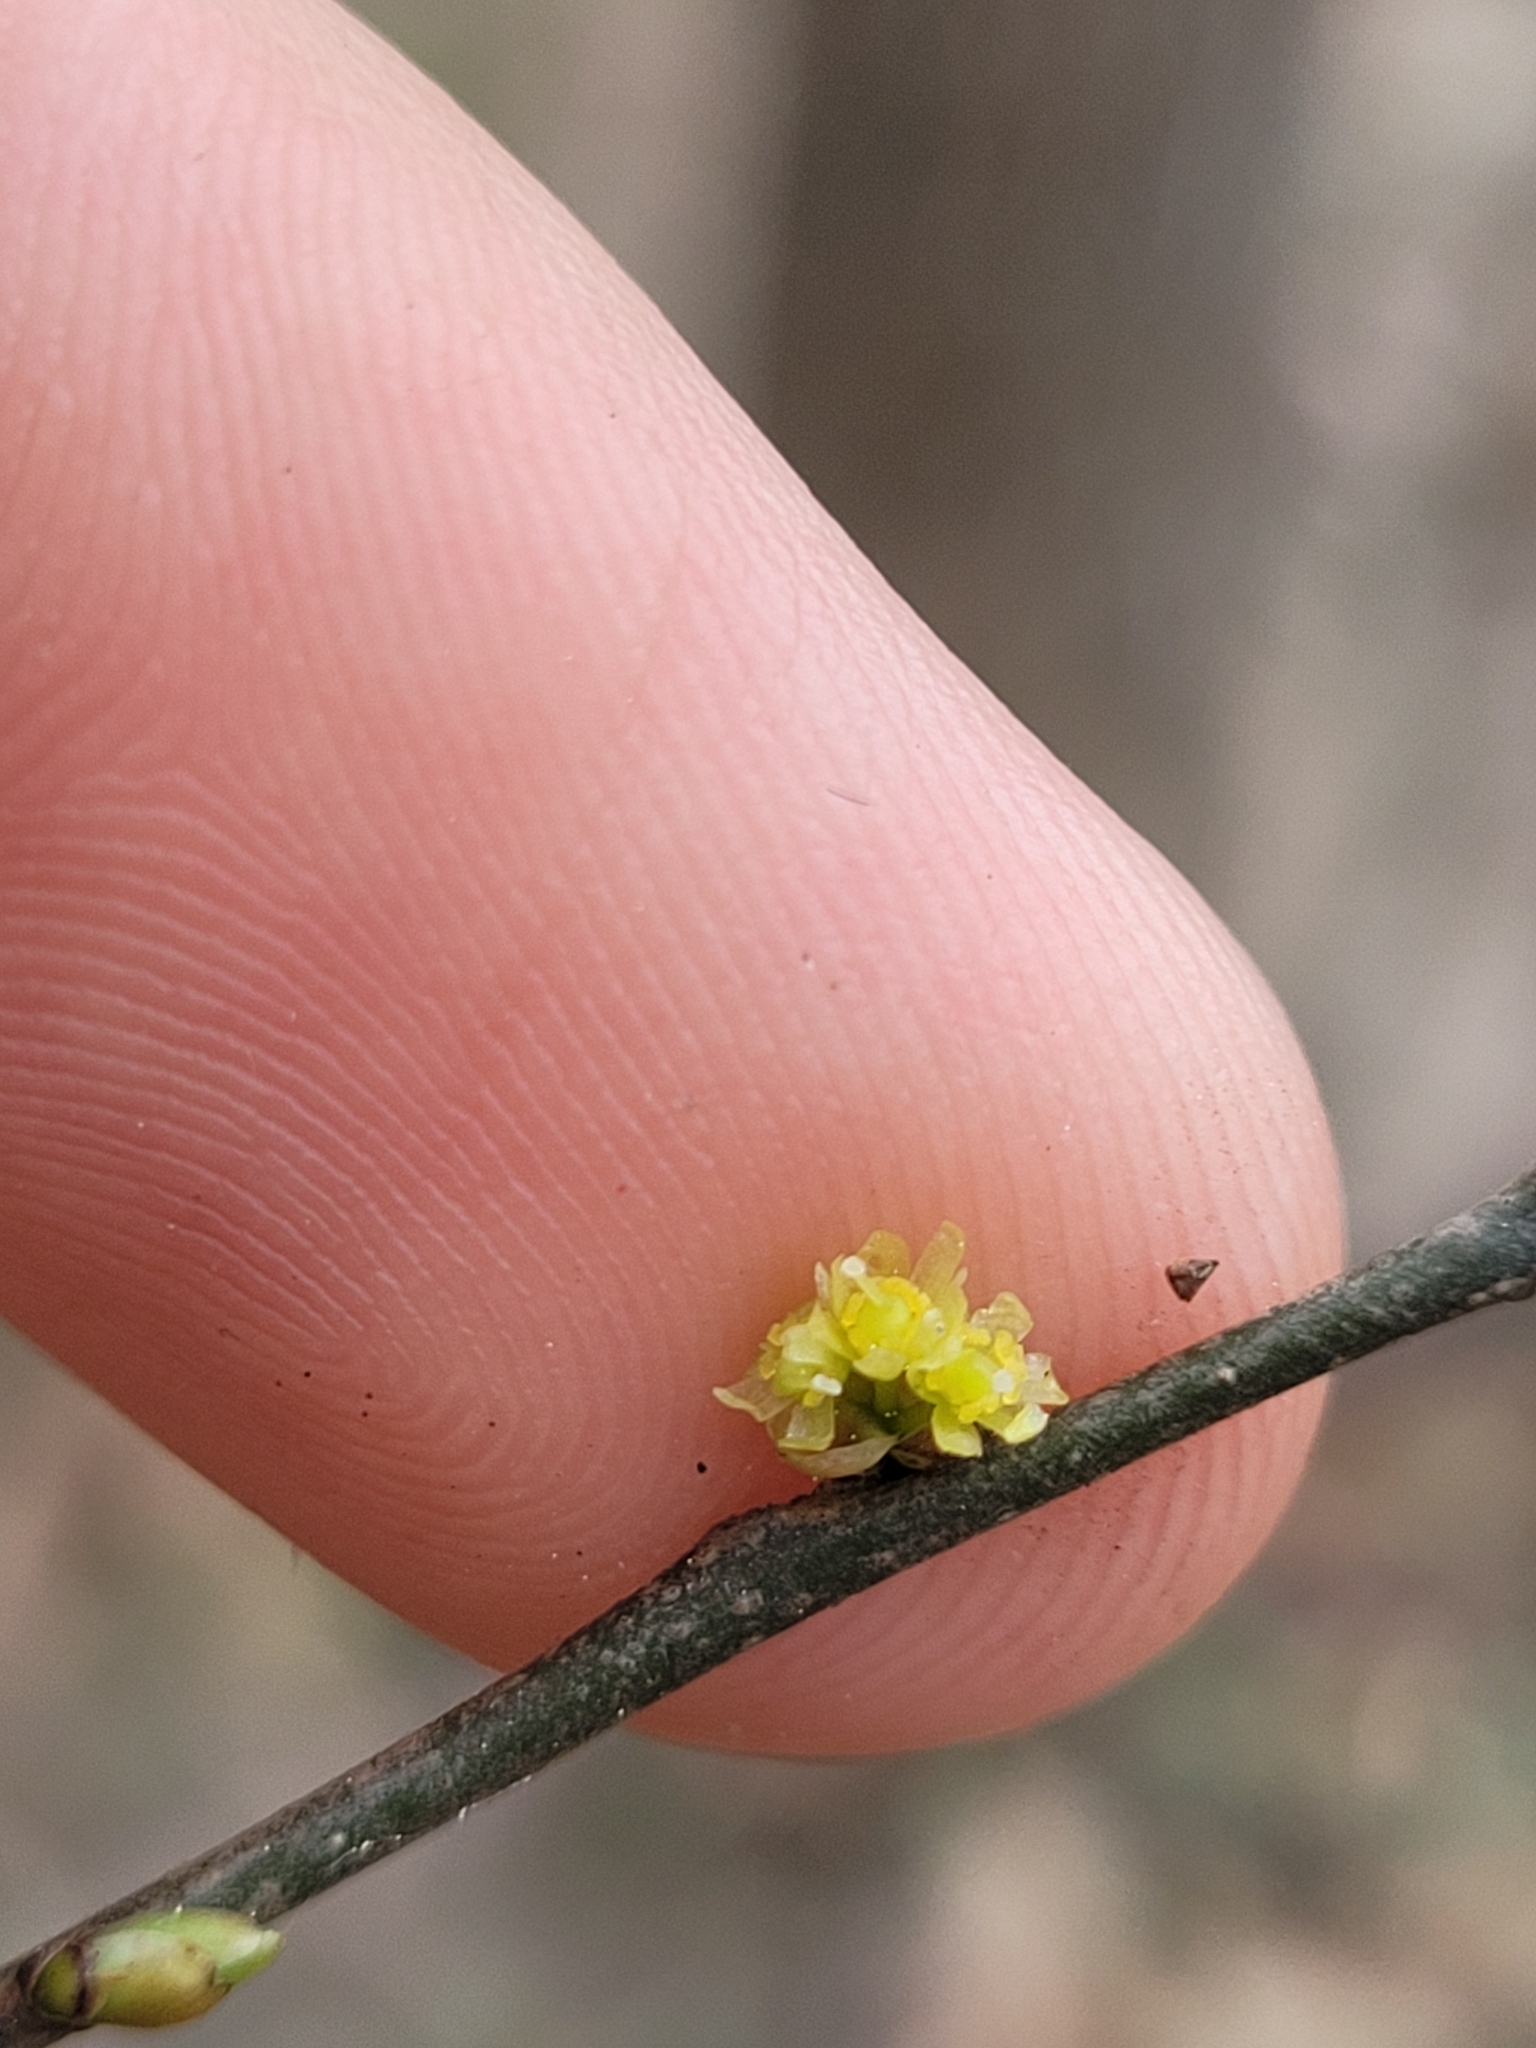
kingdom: Plantae
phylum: Tracheophyta
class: Magnoliopsida
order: Laurales
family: Lauraceae
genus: Lindera
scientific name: Lindera benzoin
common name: Spicebush
